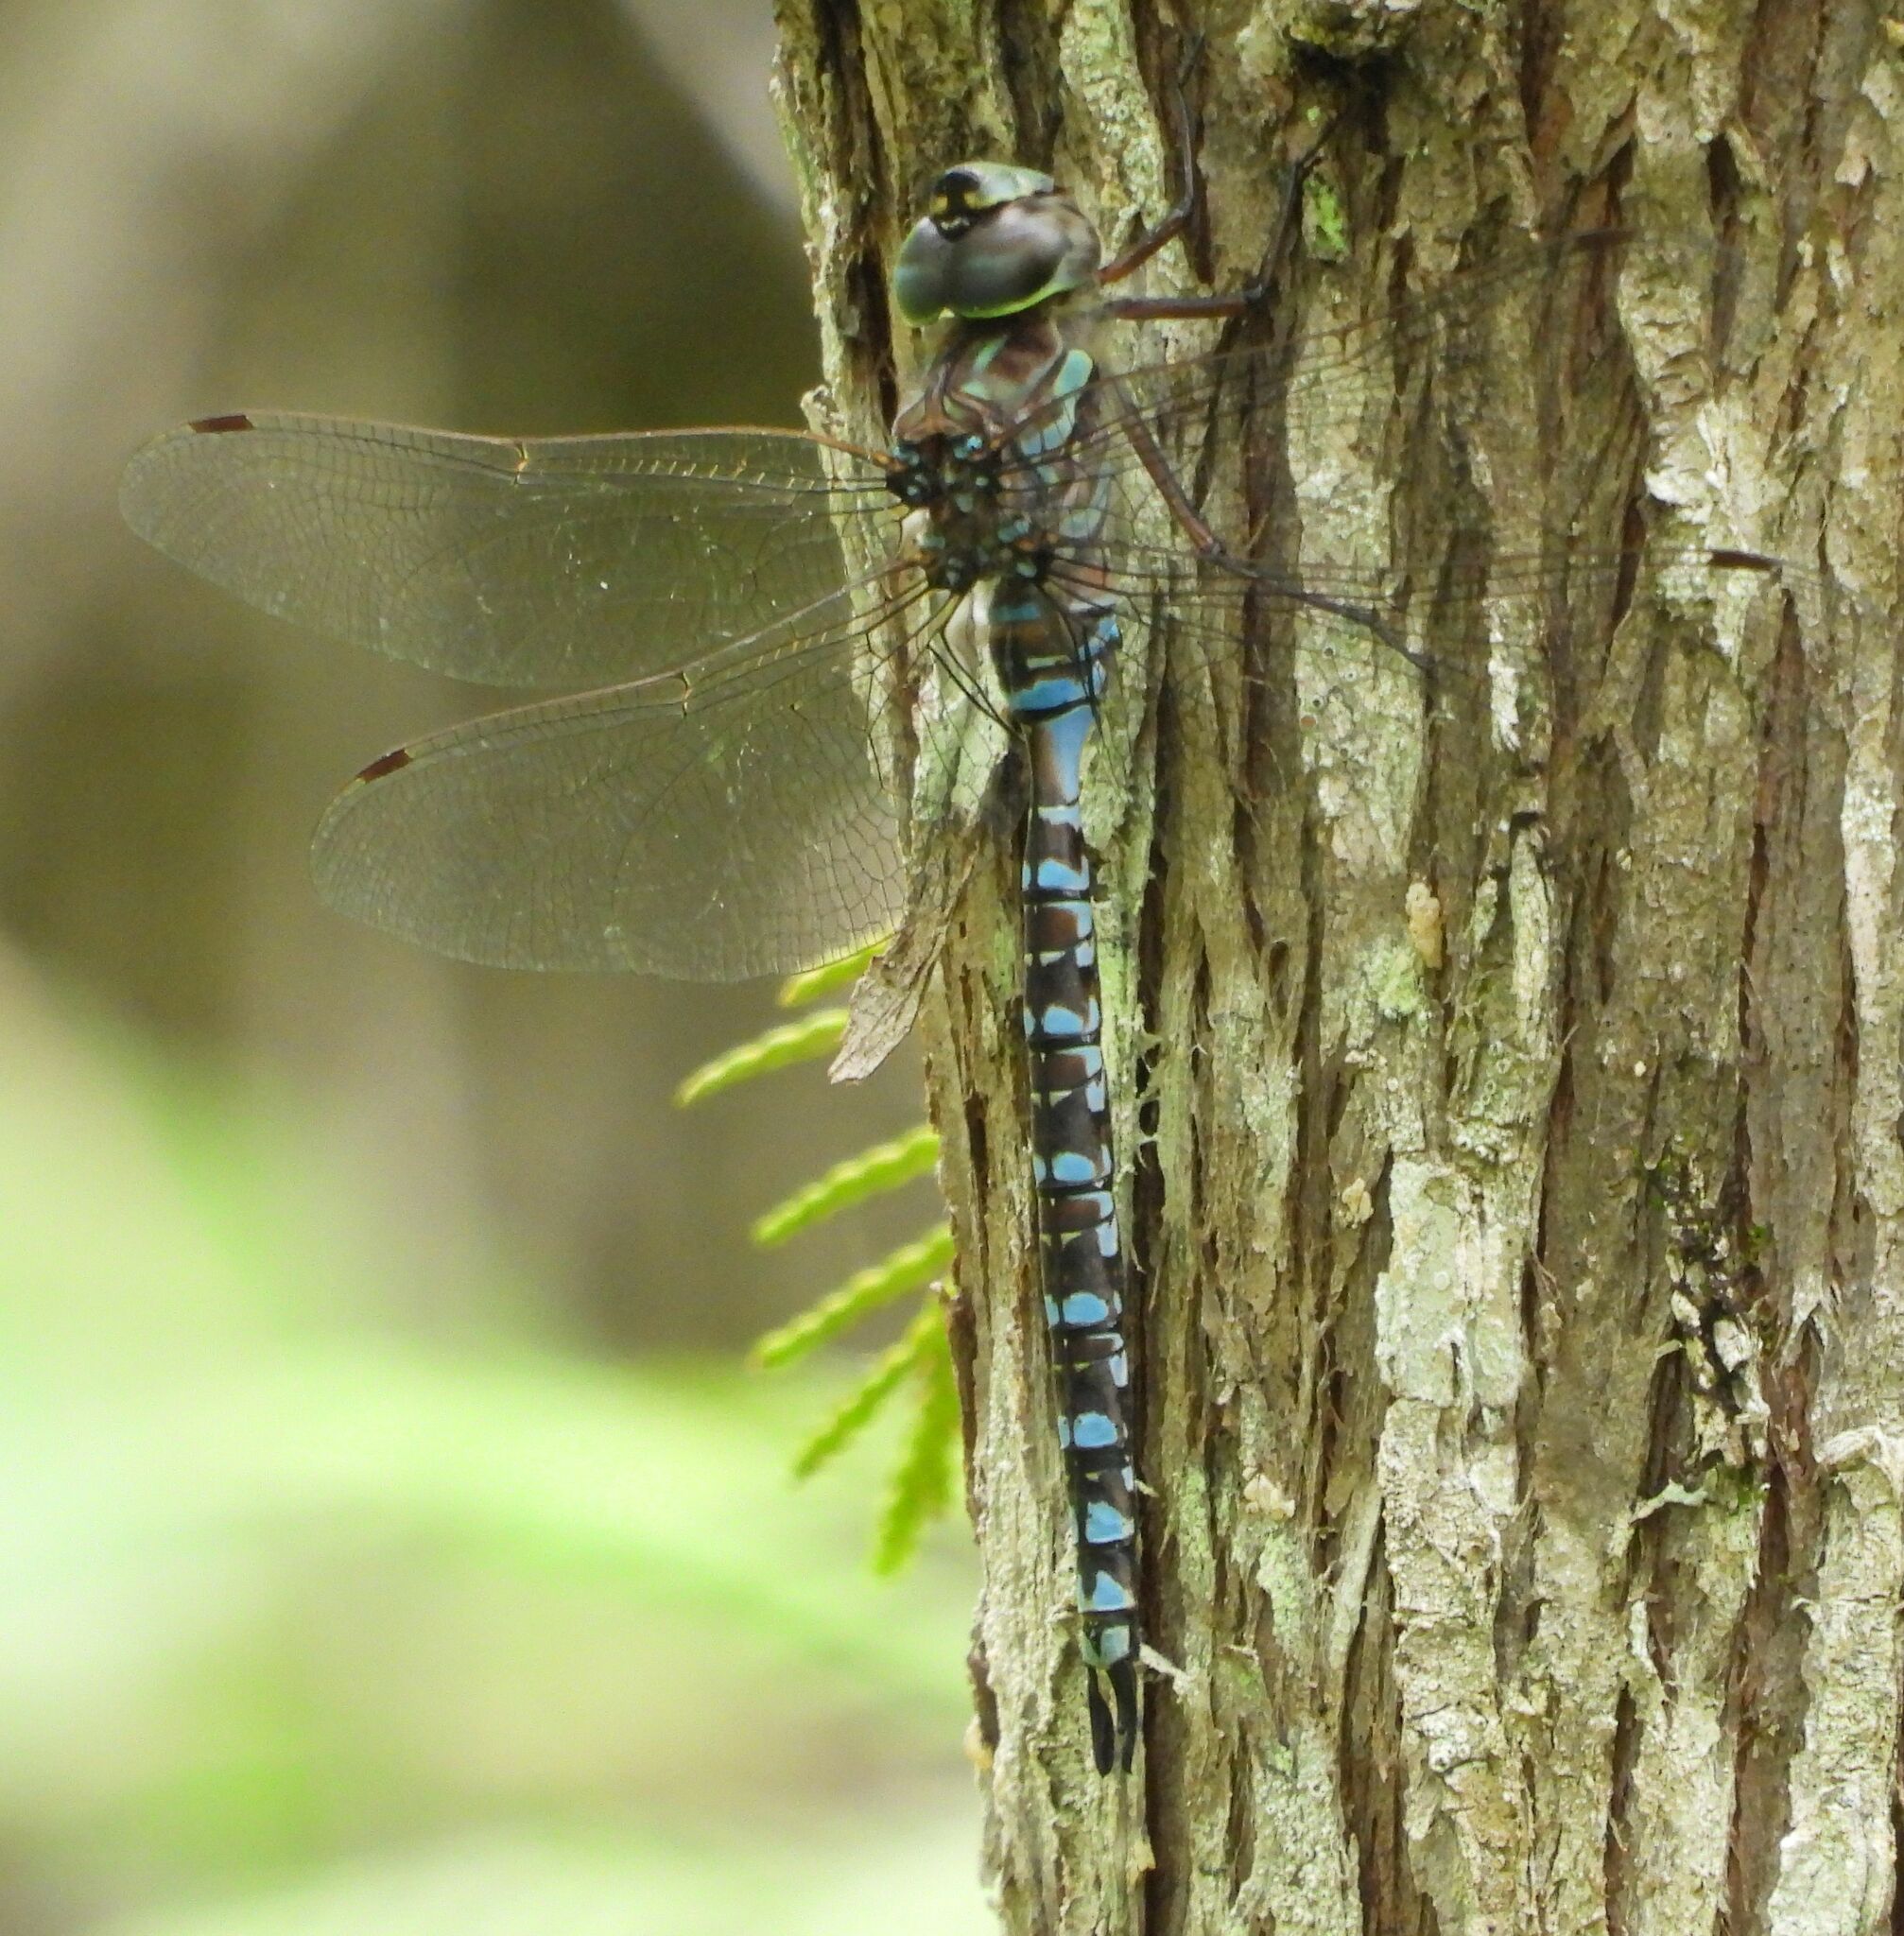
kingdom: Animalia
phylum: Arthropoda
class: Insecta
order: Odonata
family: Aeshnidae
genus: Aeshna
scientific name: Aeshna canadensis
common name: Canada darner
